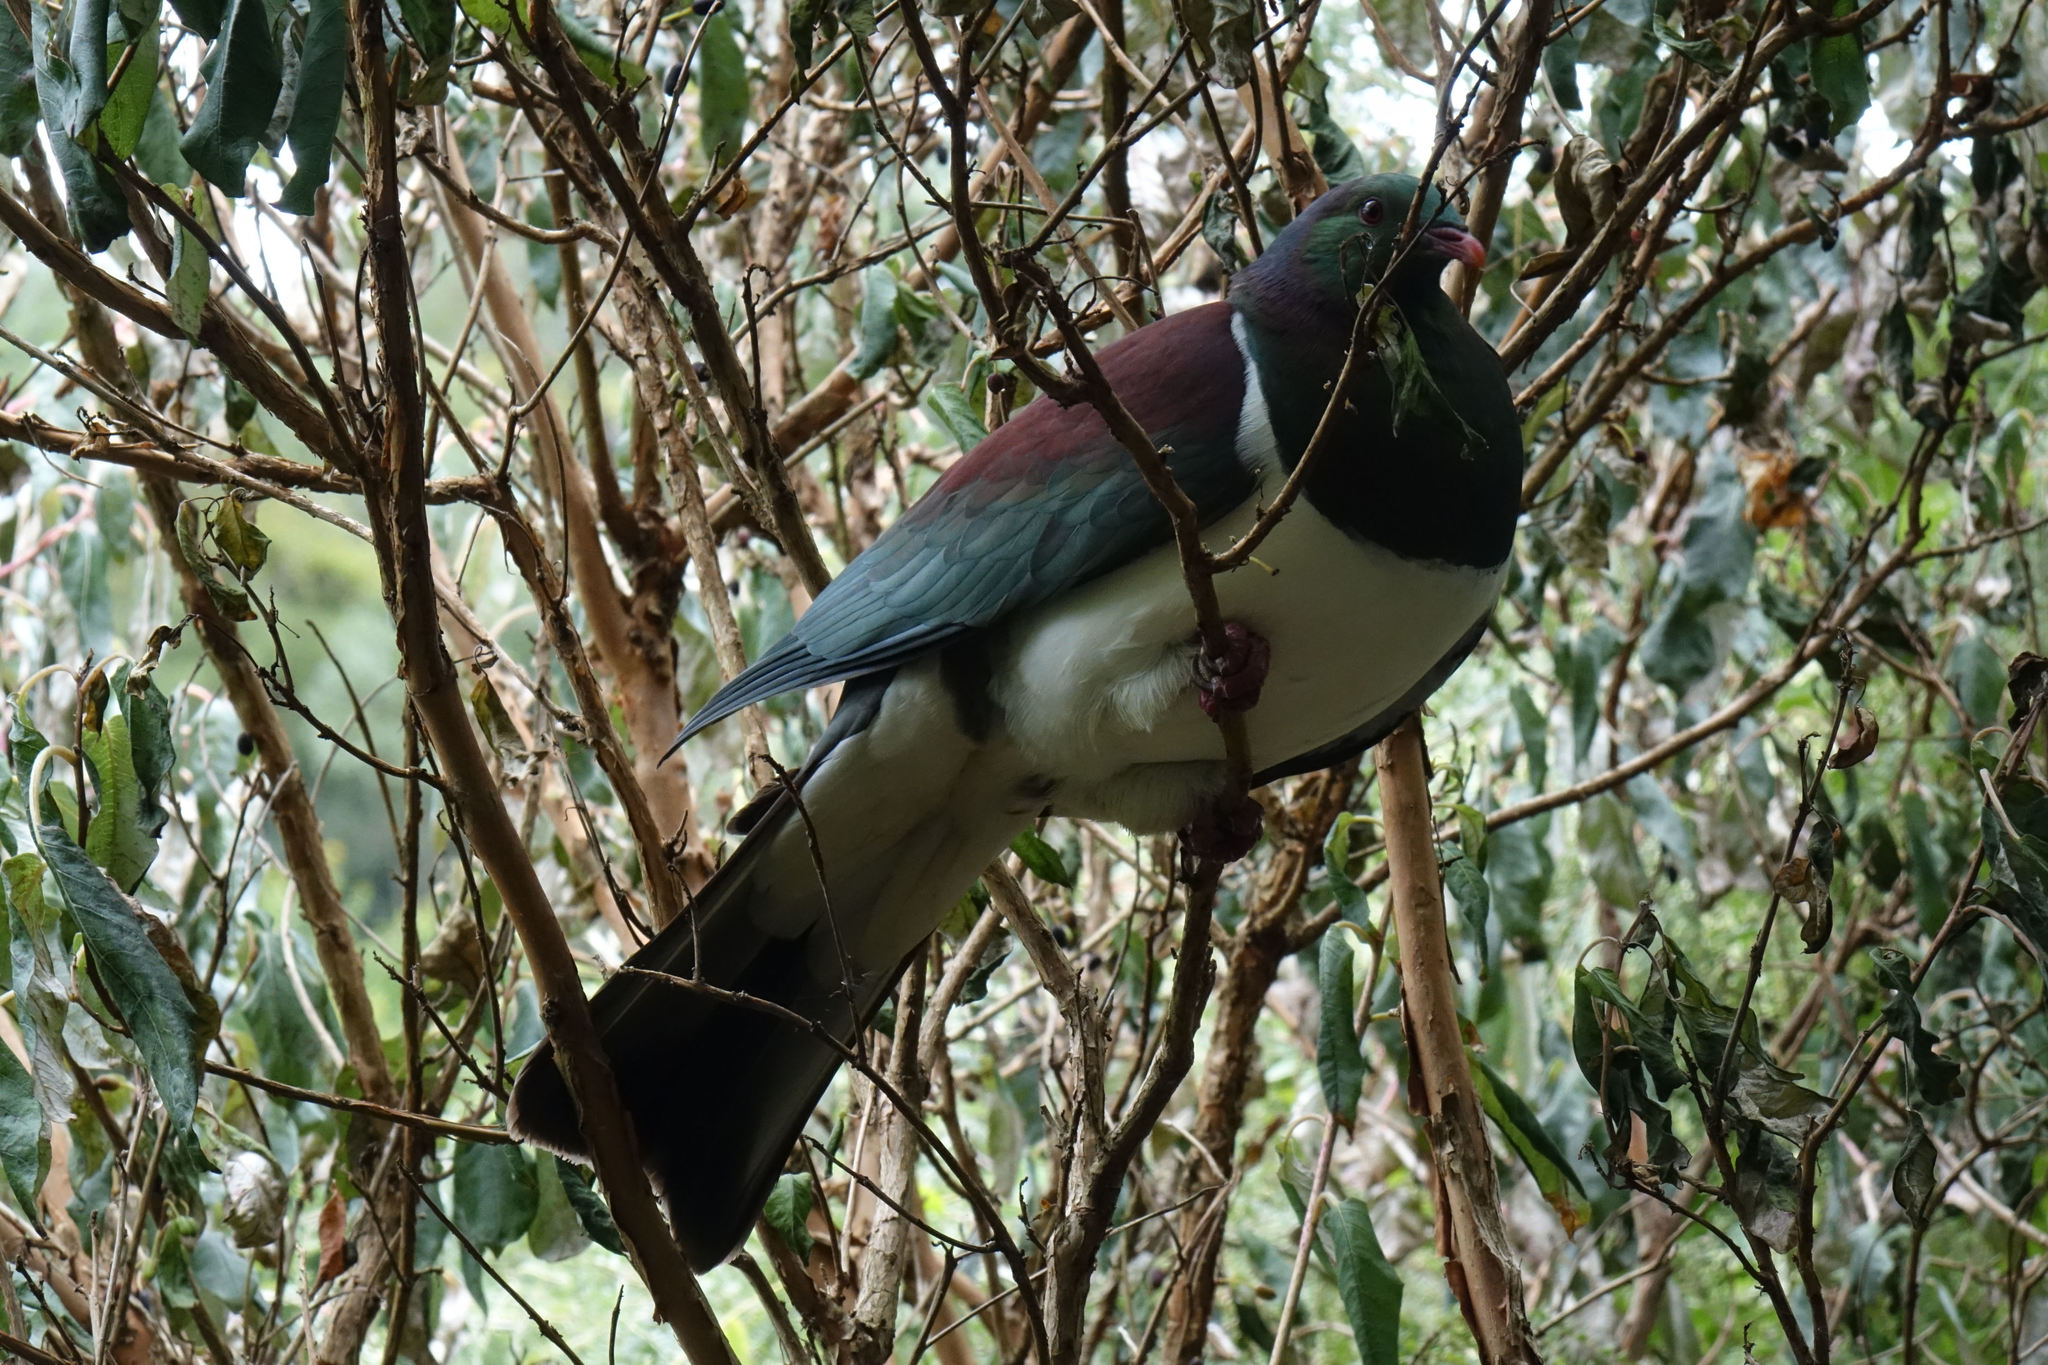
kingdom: Animalia
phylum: Chordata
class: Aves
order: Columbiformes
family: Columbidae
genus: Hemiphaga
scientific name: Hemiphaga novaeseelandiae
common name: New zealand pigeon
